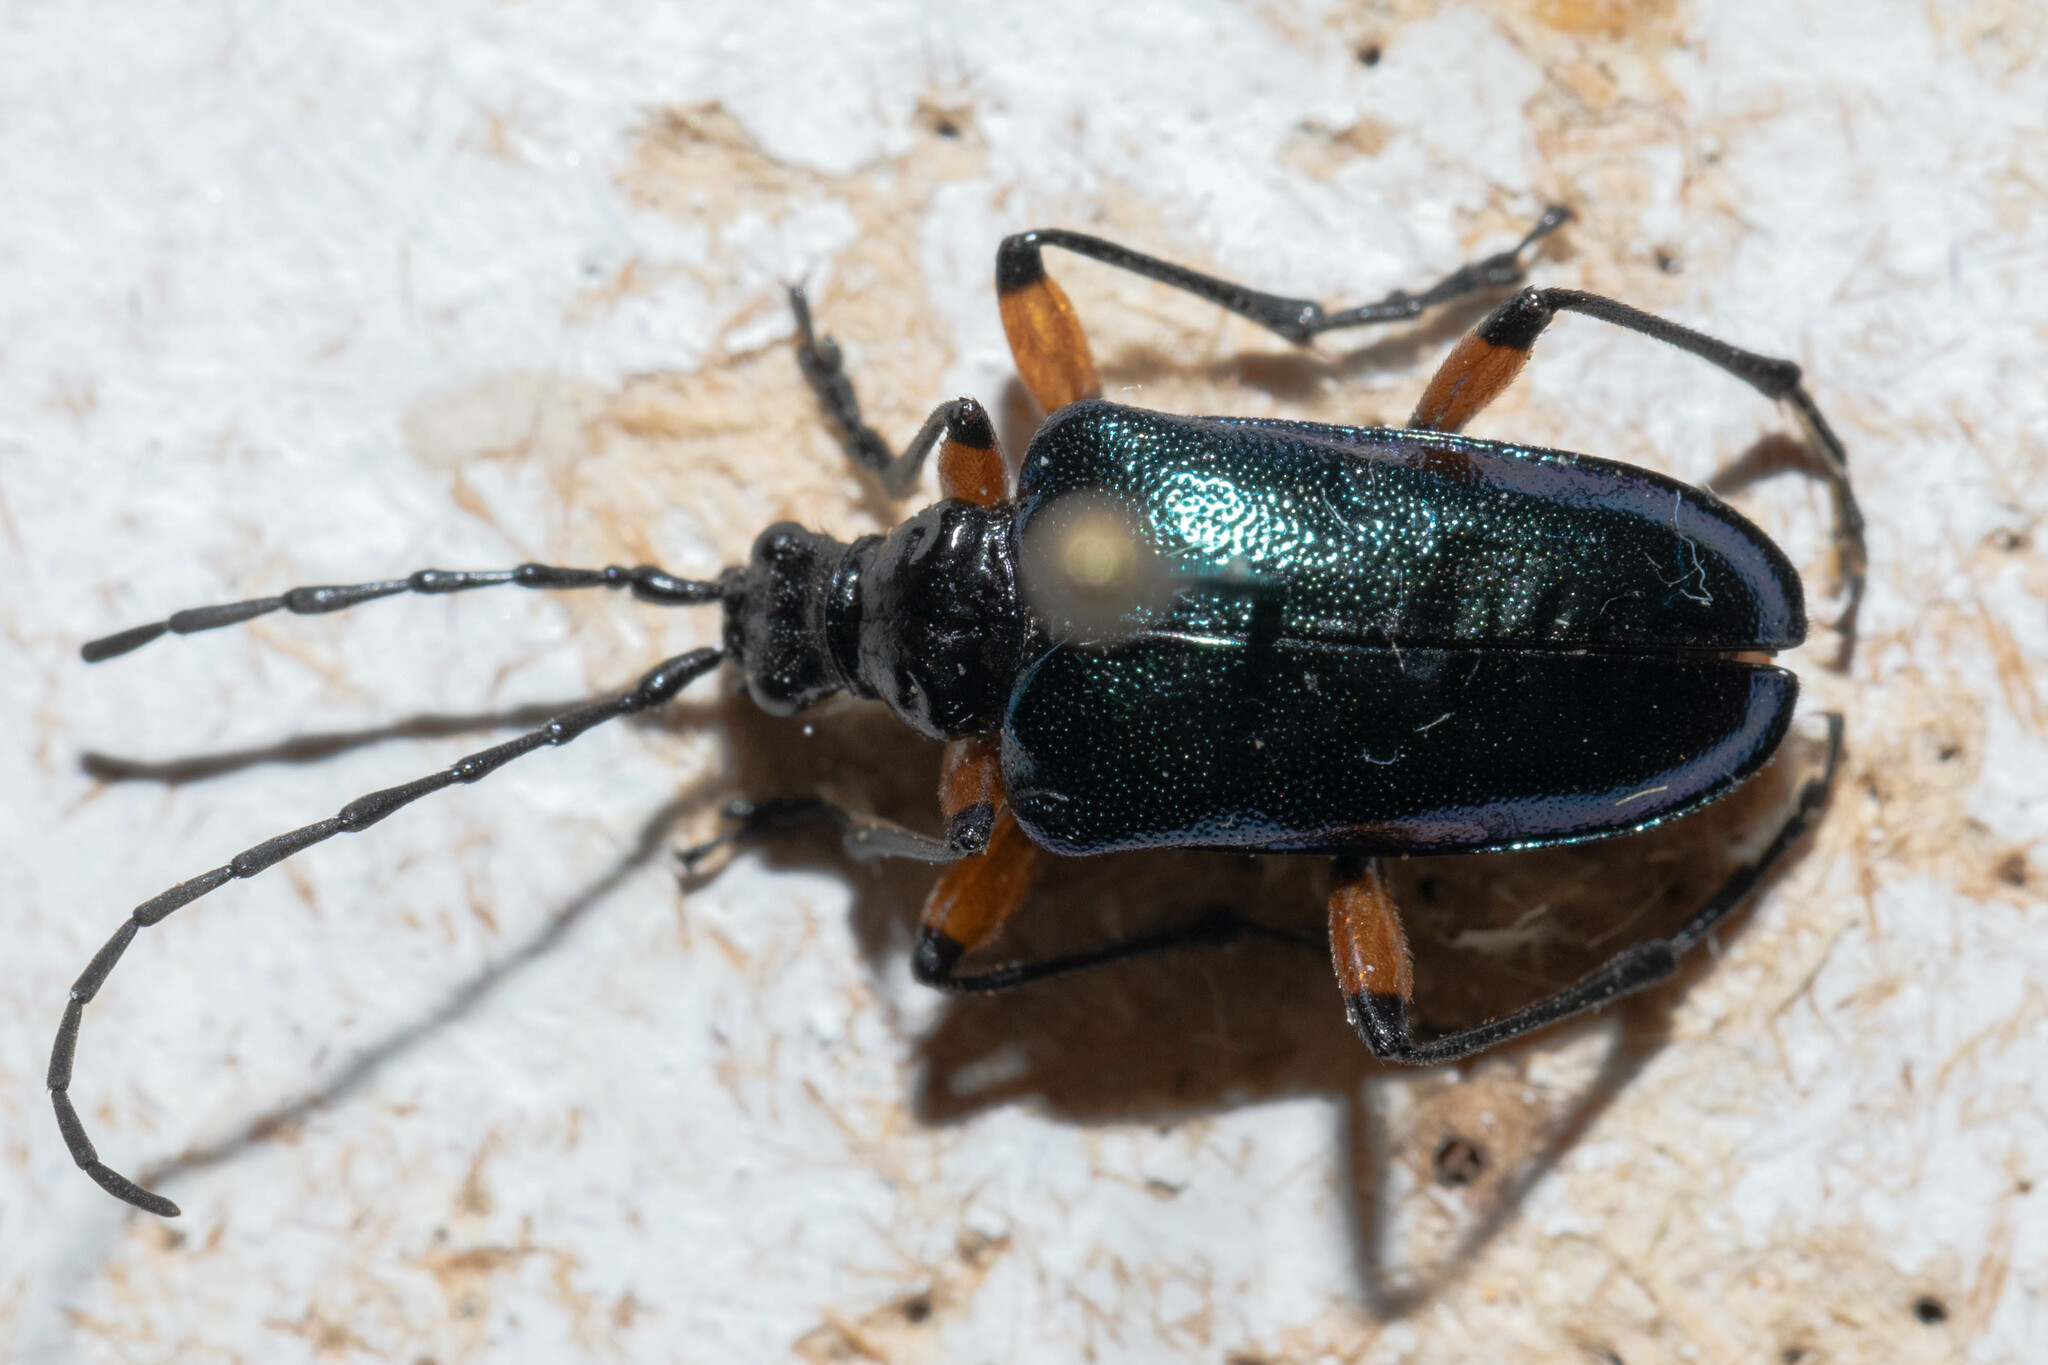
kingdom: Animalia
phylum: Arthropoda
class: Insecta
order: Coleoptera
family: Cerambycidae
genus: Pseudogaurotina
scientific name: Pseudogaurotina cressoni
